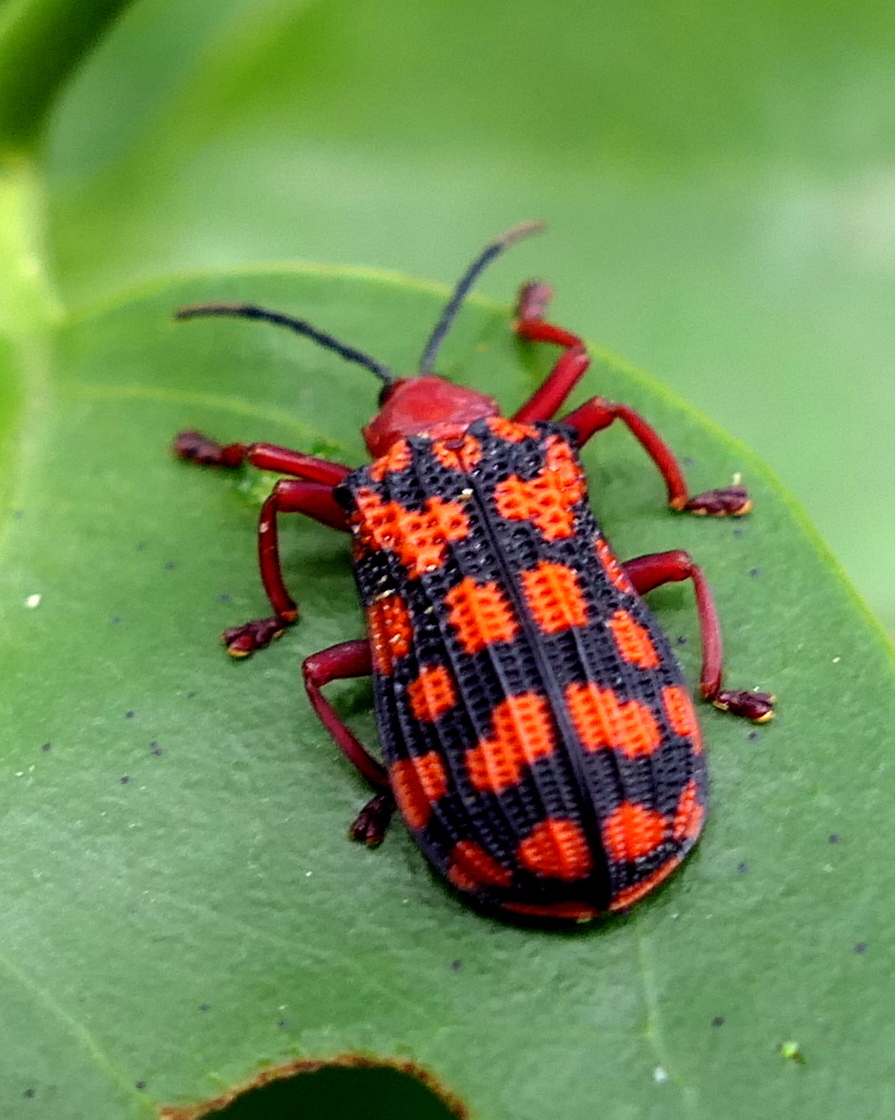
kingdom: Animalia
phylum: Arthropoda
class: Insecta
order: Coleoptera
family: Chrysomelidae
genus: Sceloenopla
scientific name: Sceloenopla maculata
